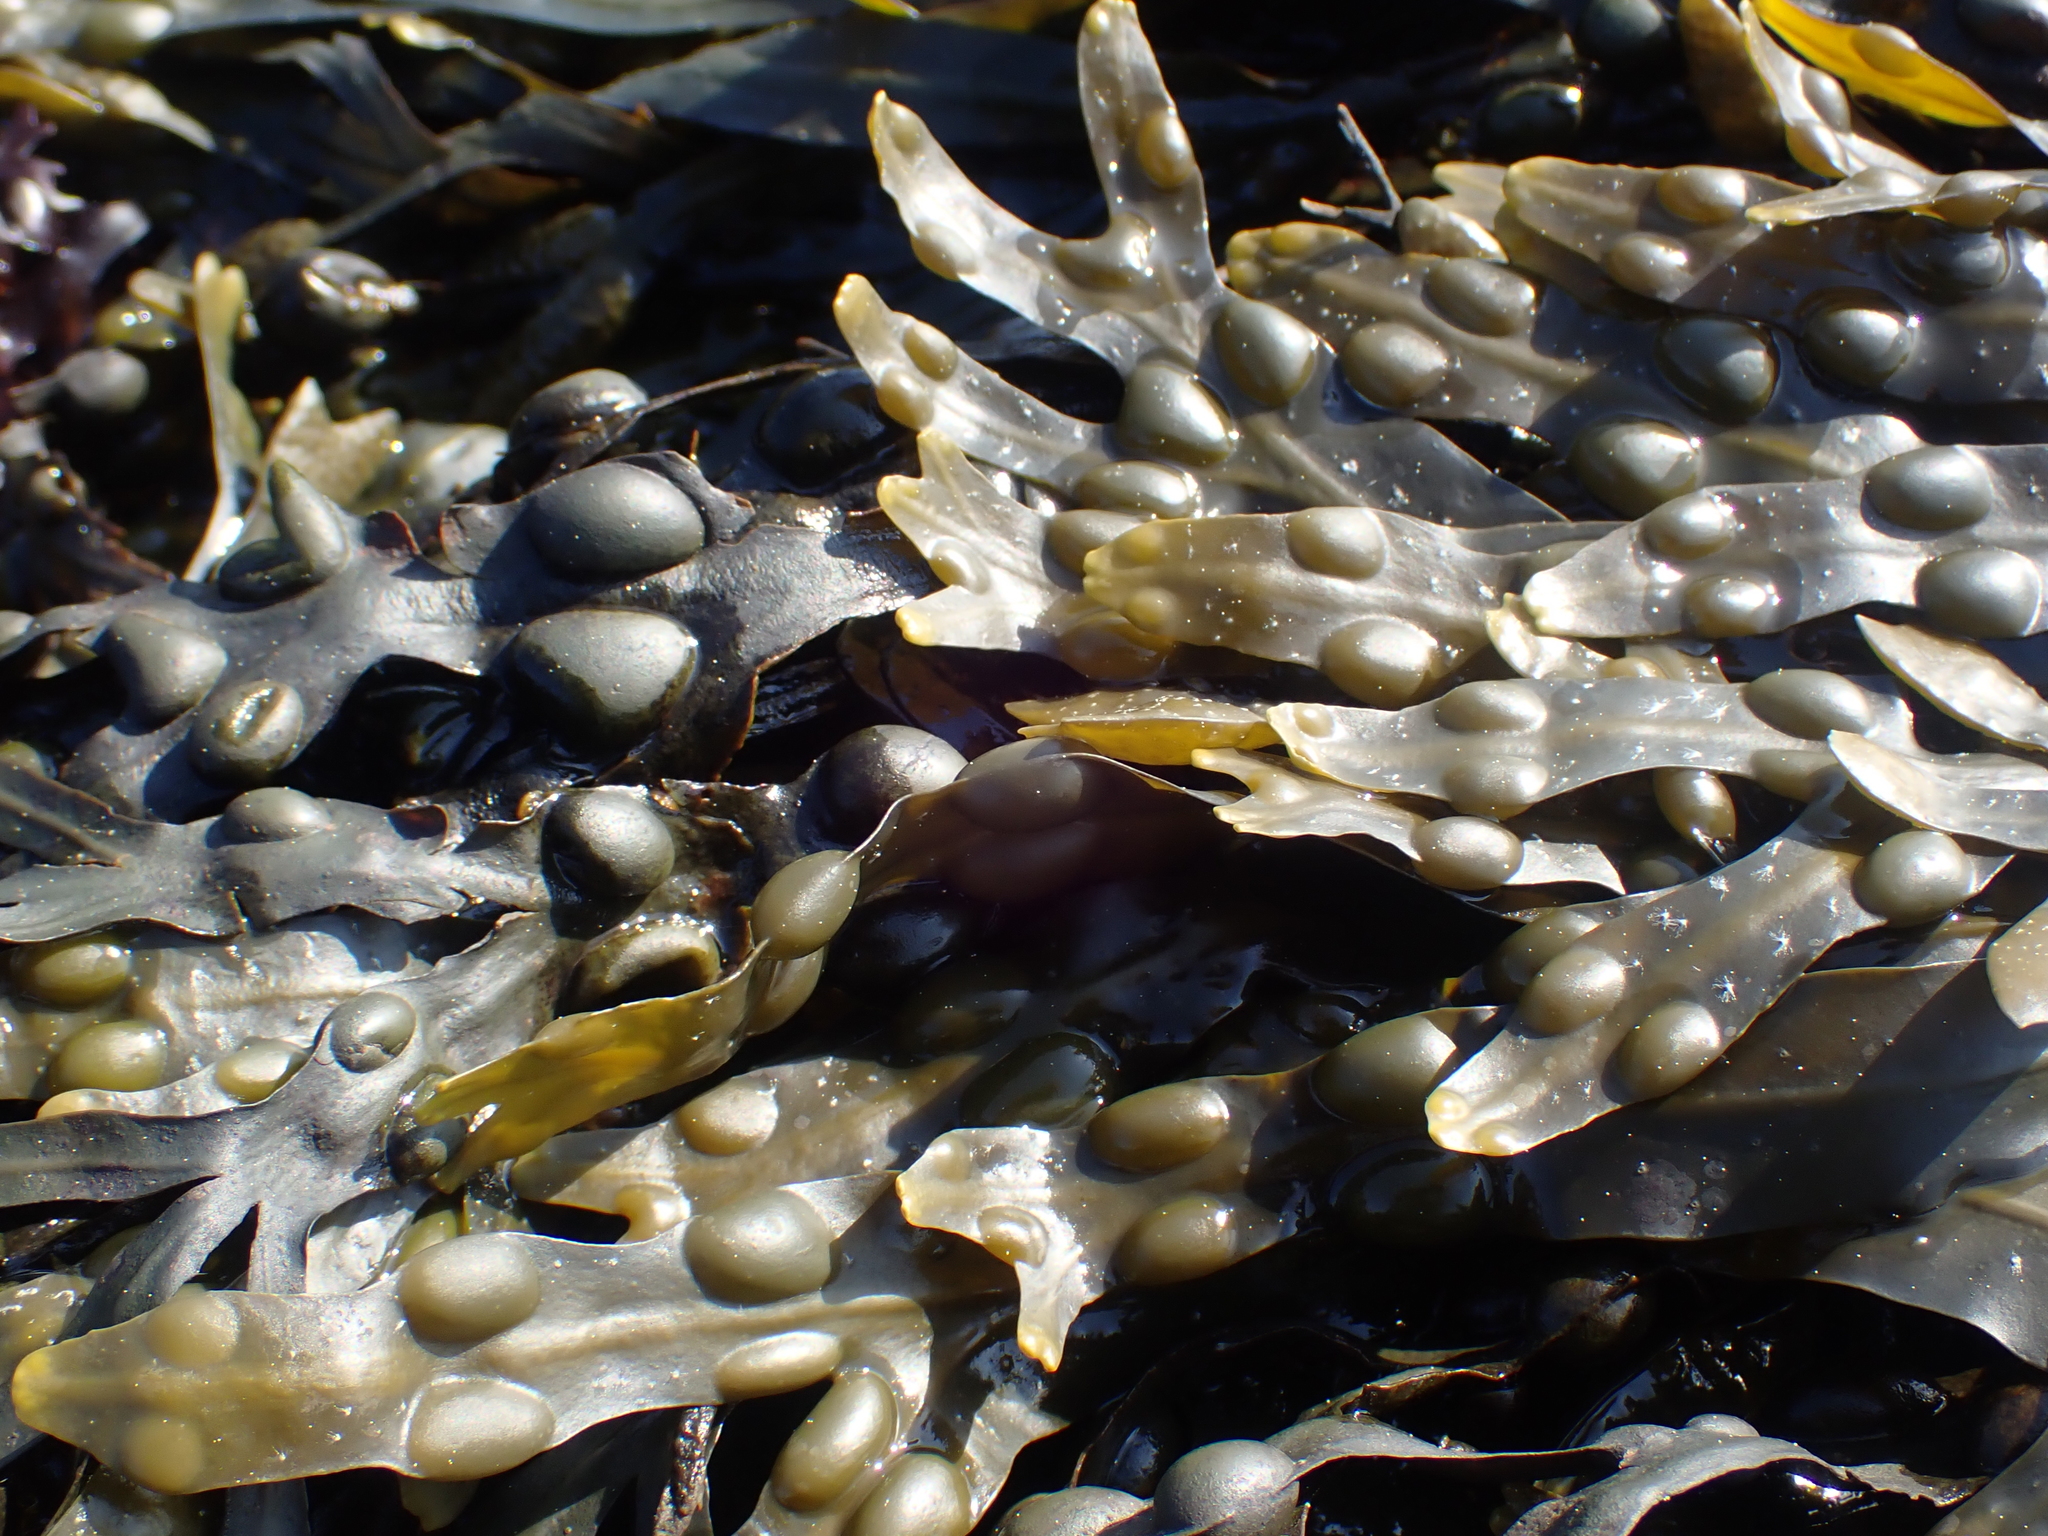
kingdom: Chromista
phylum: Ochrophyta
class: Phaeophyceae
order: Fucales
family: Fucaceae
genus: Fucus
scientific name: Fucus vesiculosus
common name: Bladder wrack
